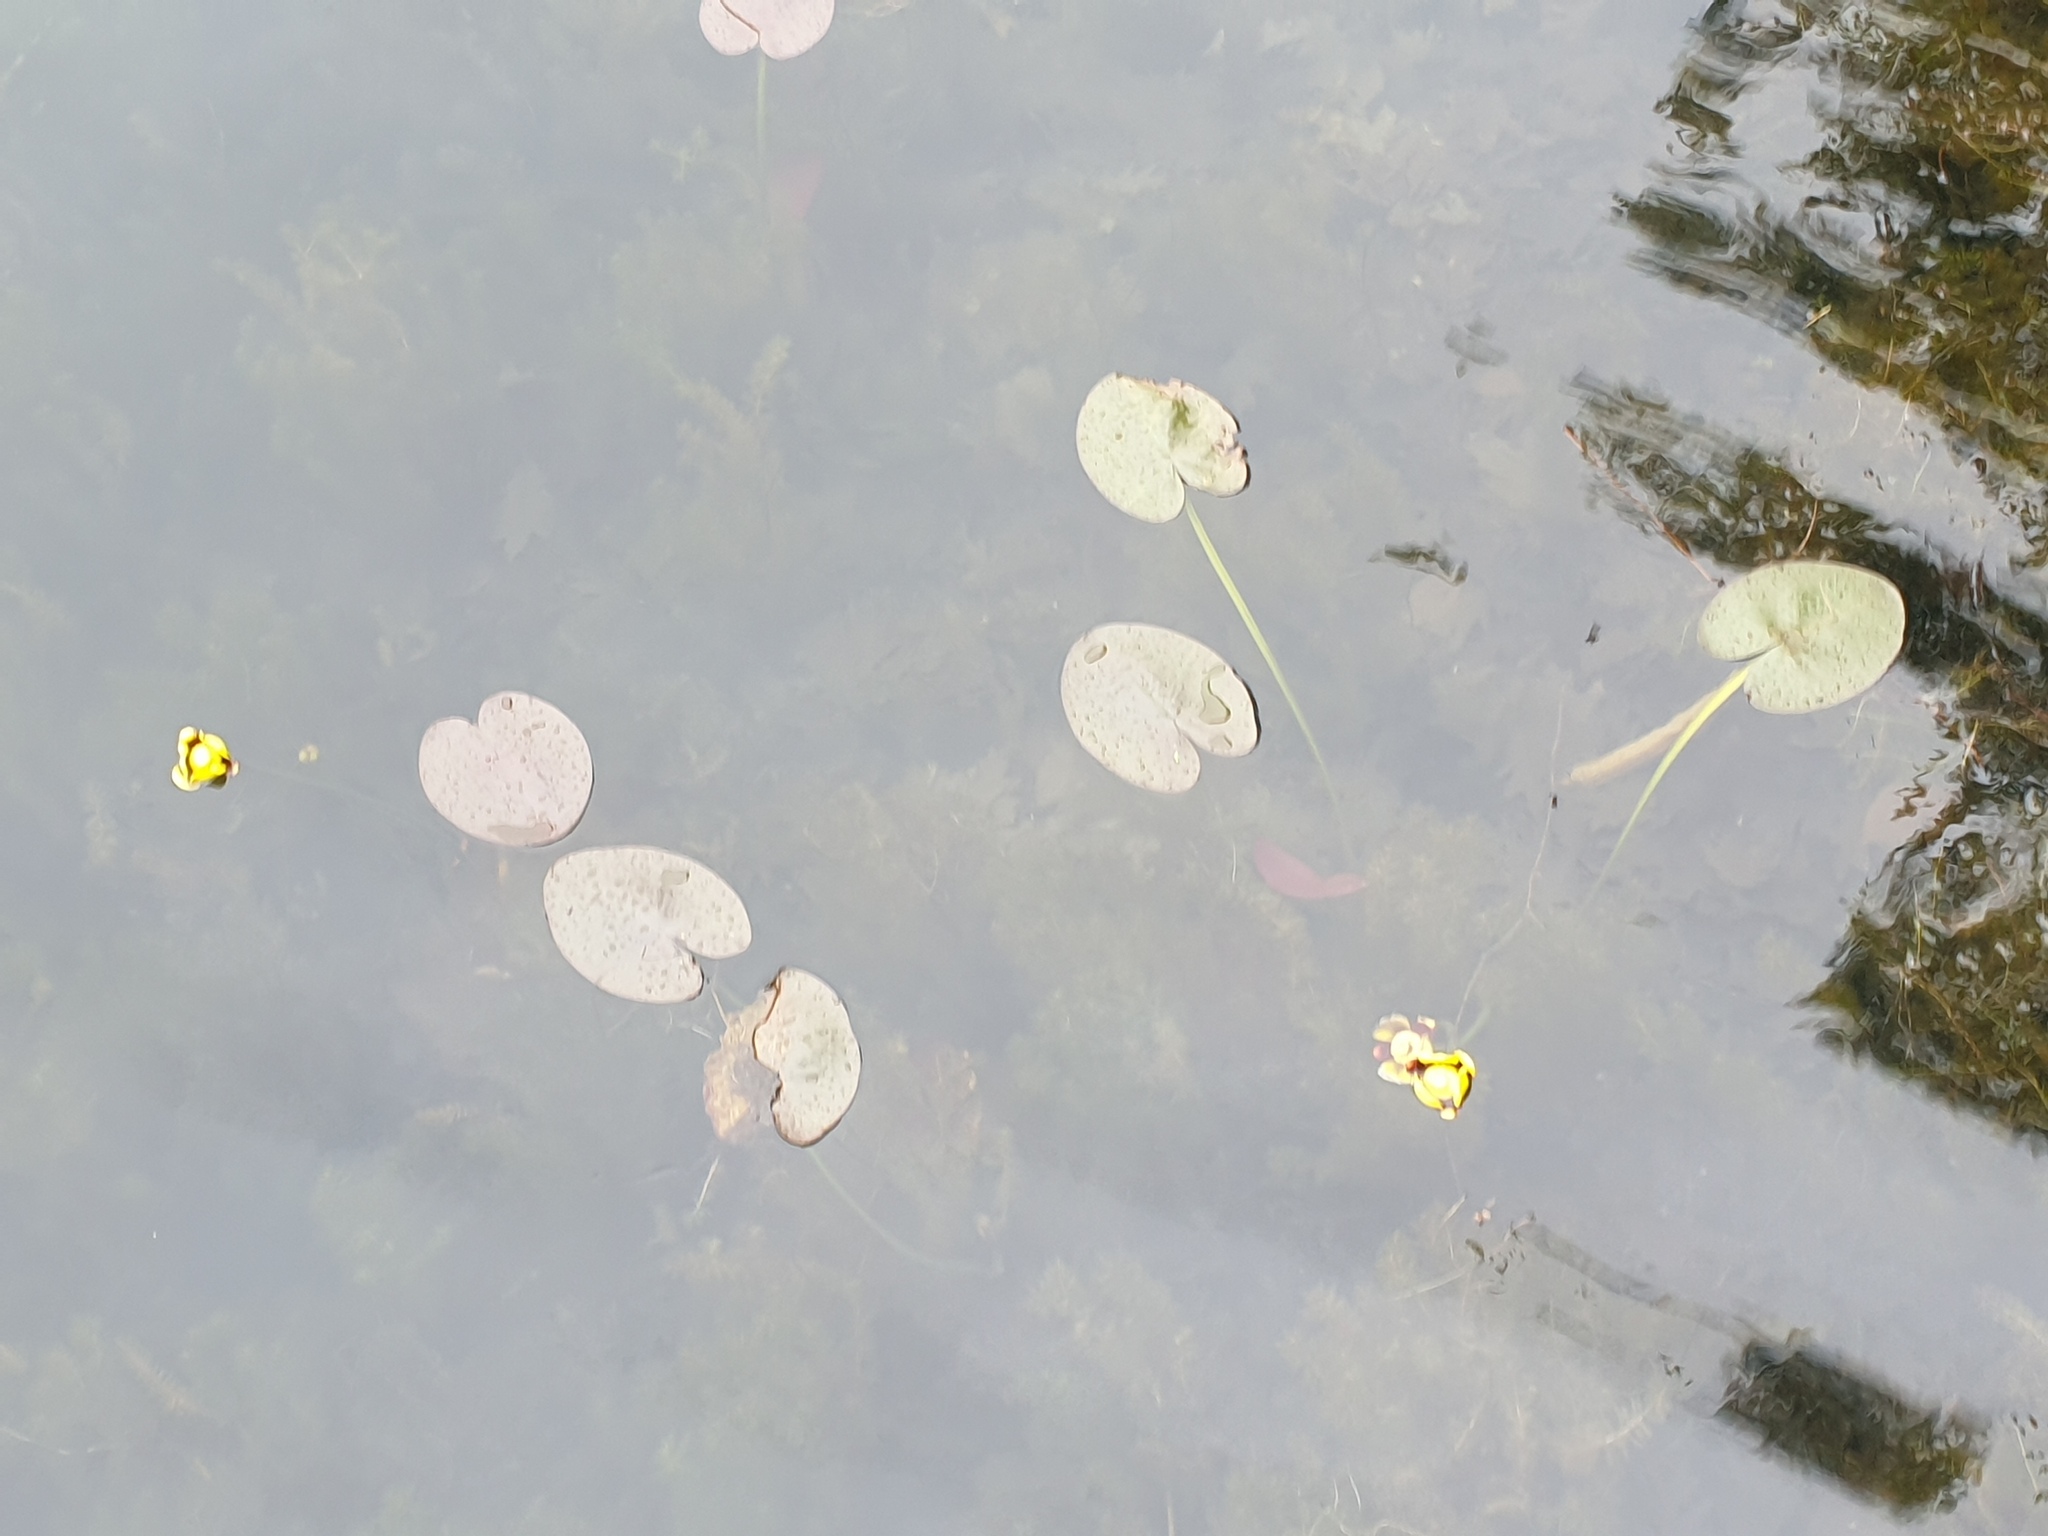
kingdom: Plantae
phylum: Tracheophyta
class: Magnoliopsida
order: Nymphaeales
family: Nymphaeaceae
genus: Nuphar
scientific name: Nuphar variegata
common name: Beaver-root
